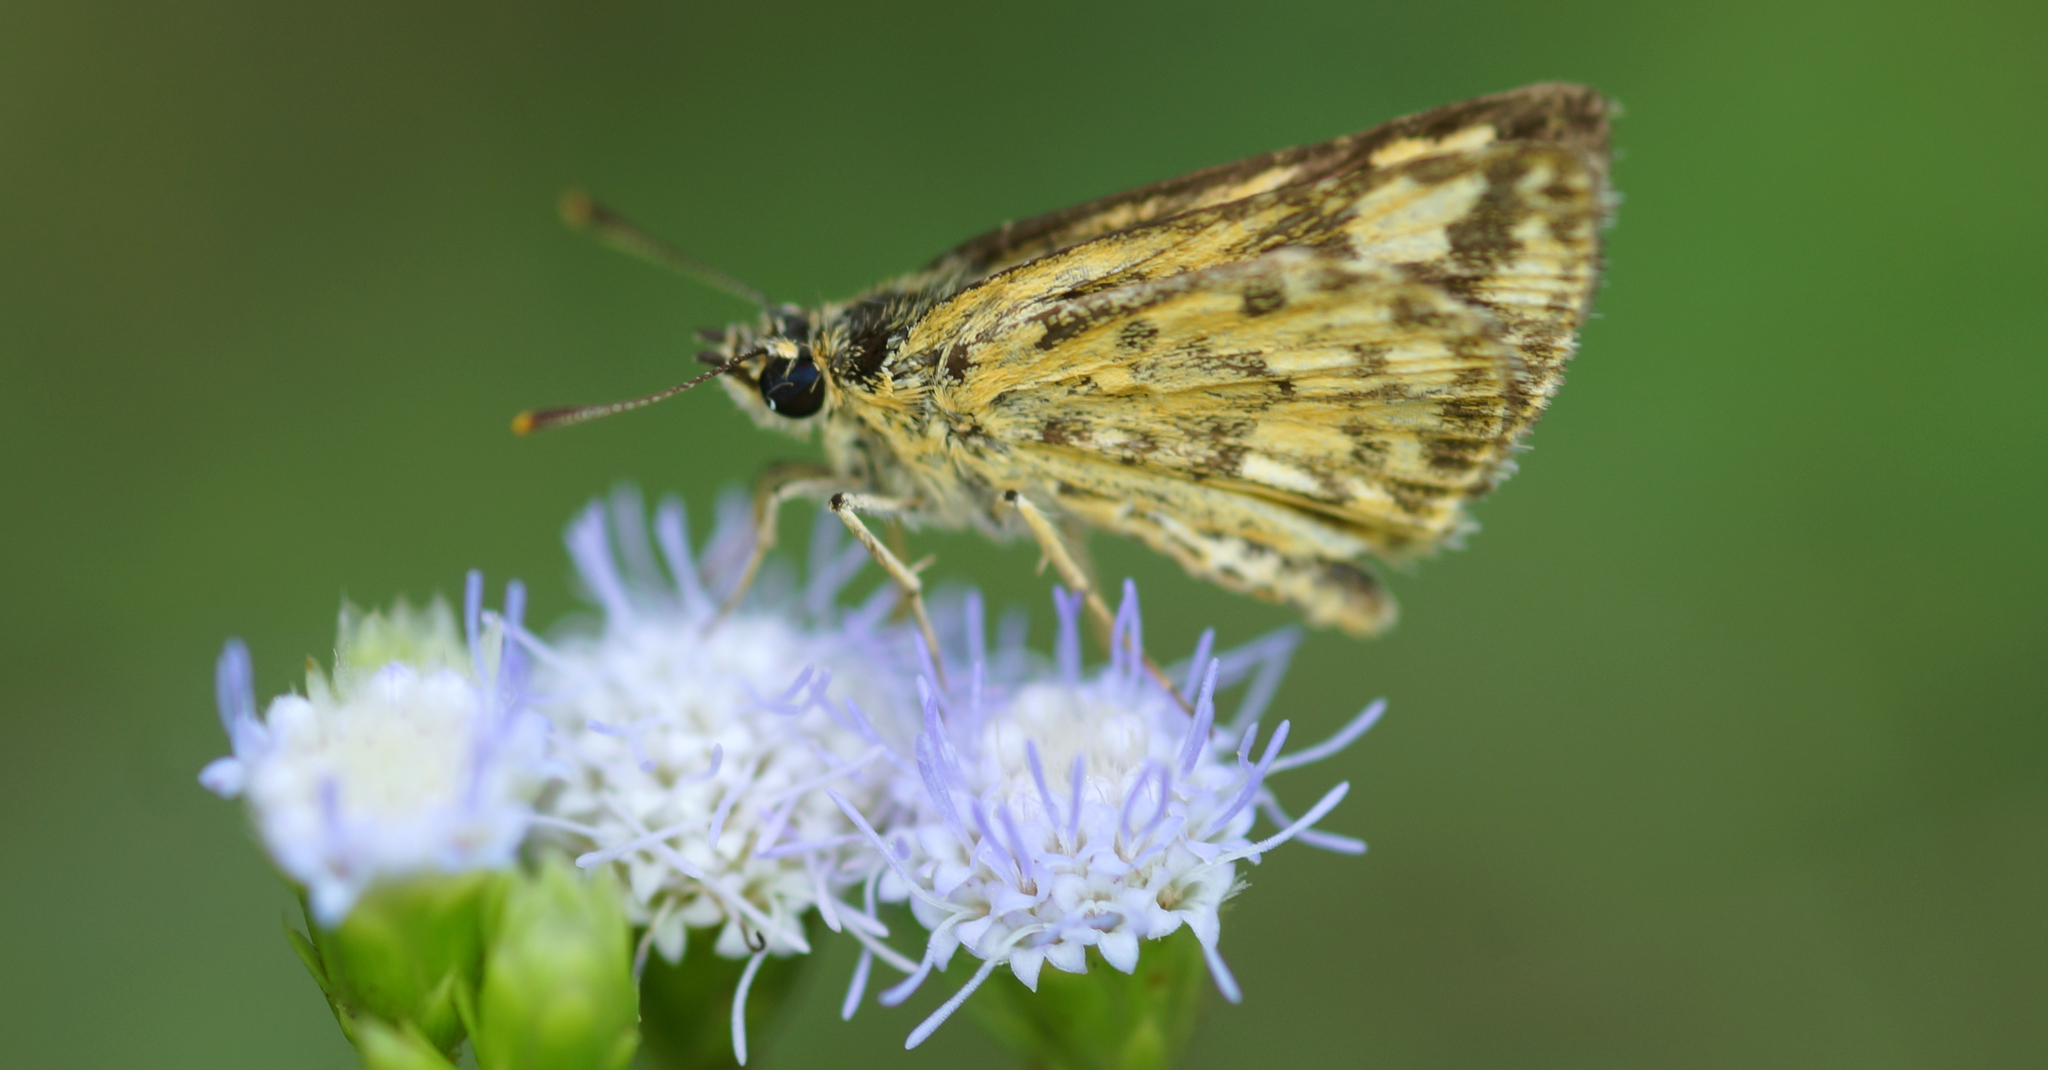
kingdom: Animalia
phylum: Arthropoda
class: Insecta
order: Lepidoptera
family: Hesperiidae
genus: Ampittia
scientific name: Ampittia dioscorides
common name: Common bush hopper
